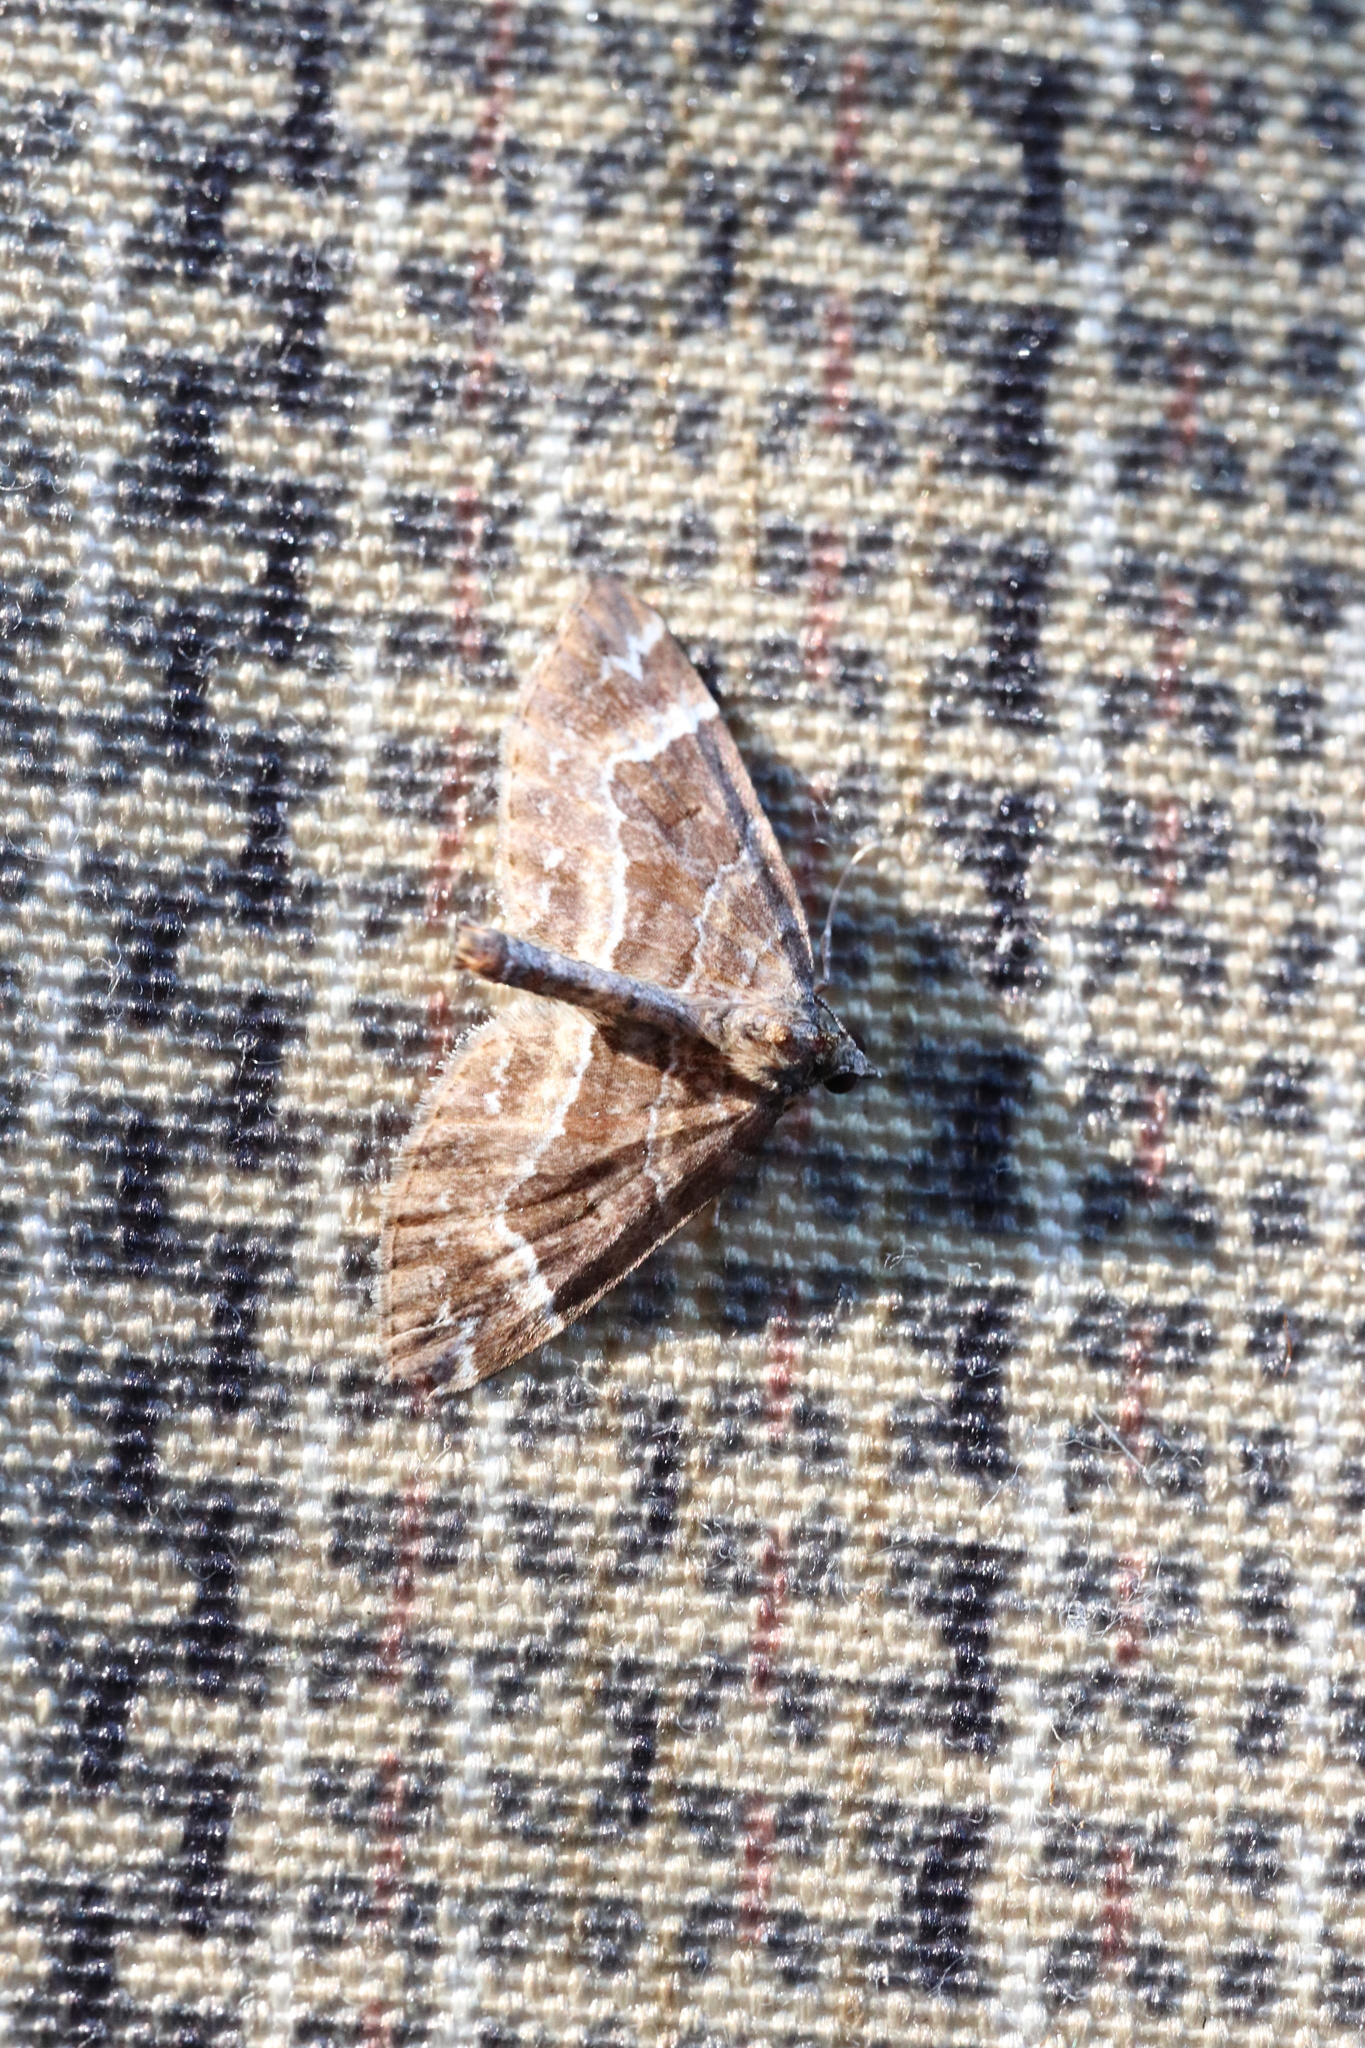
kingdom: Animalia
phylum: Arthropoda
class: Insecta
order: Lepidoptera
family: Geometridae
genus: Megnupiru
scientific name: Megnupiru pucoihuensis
